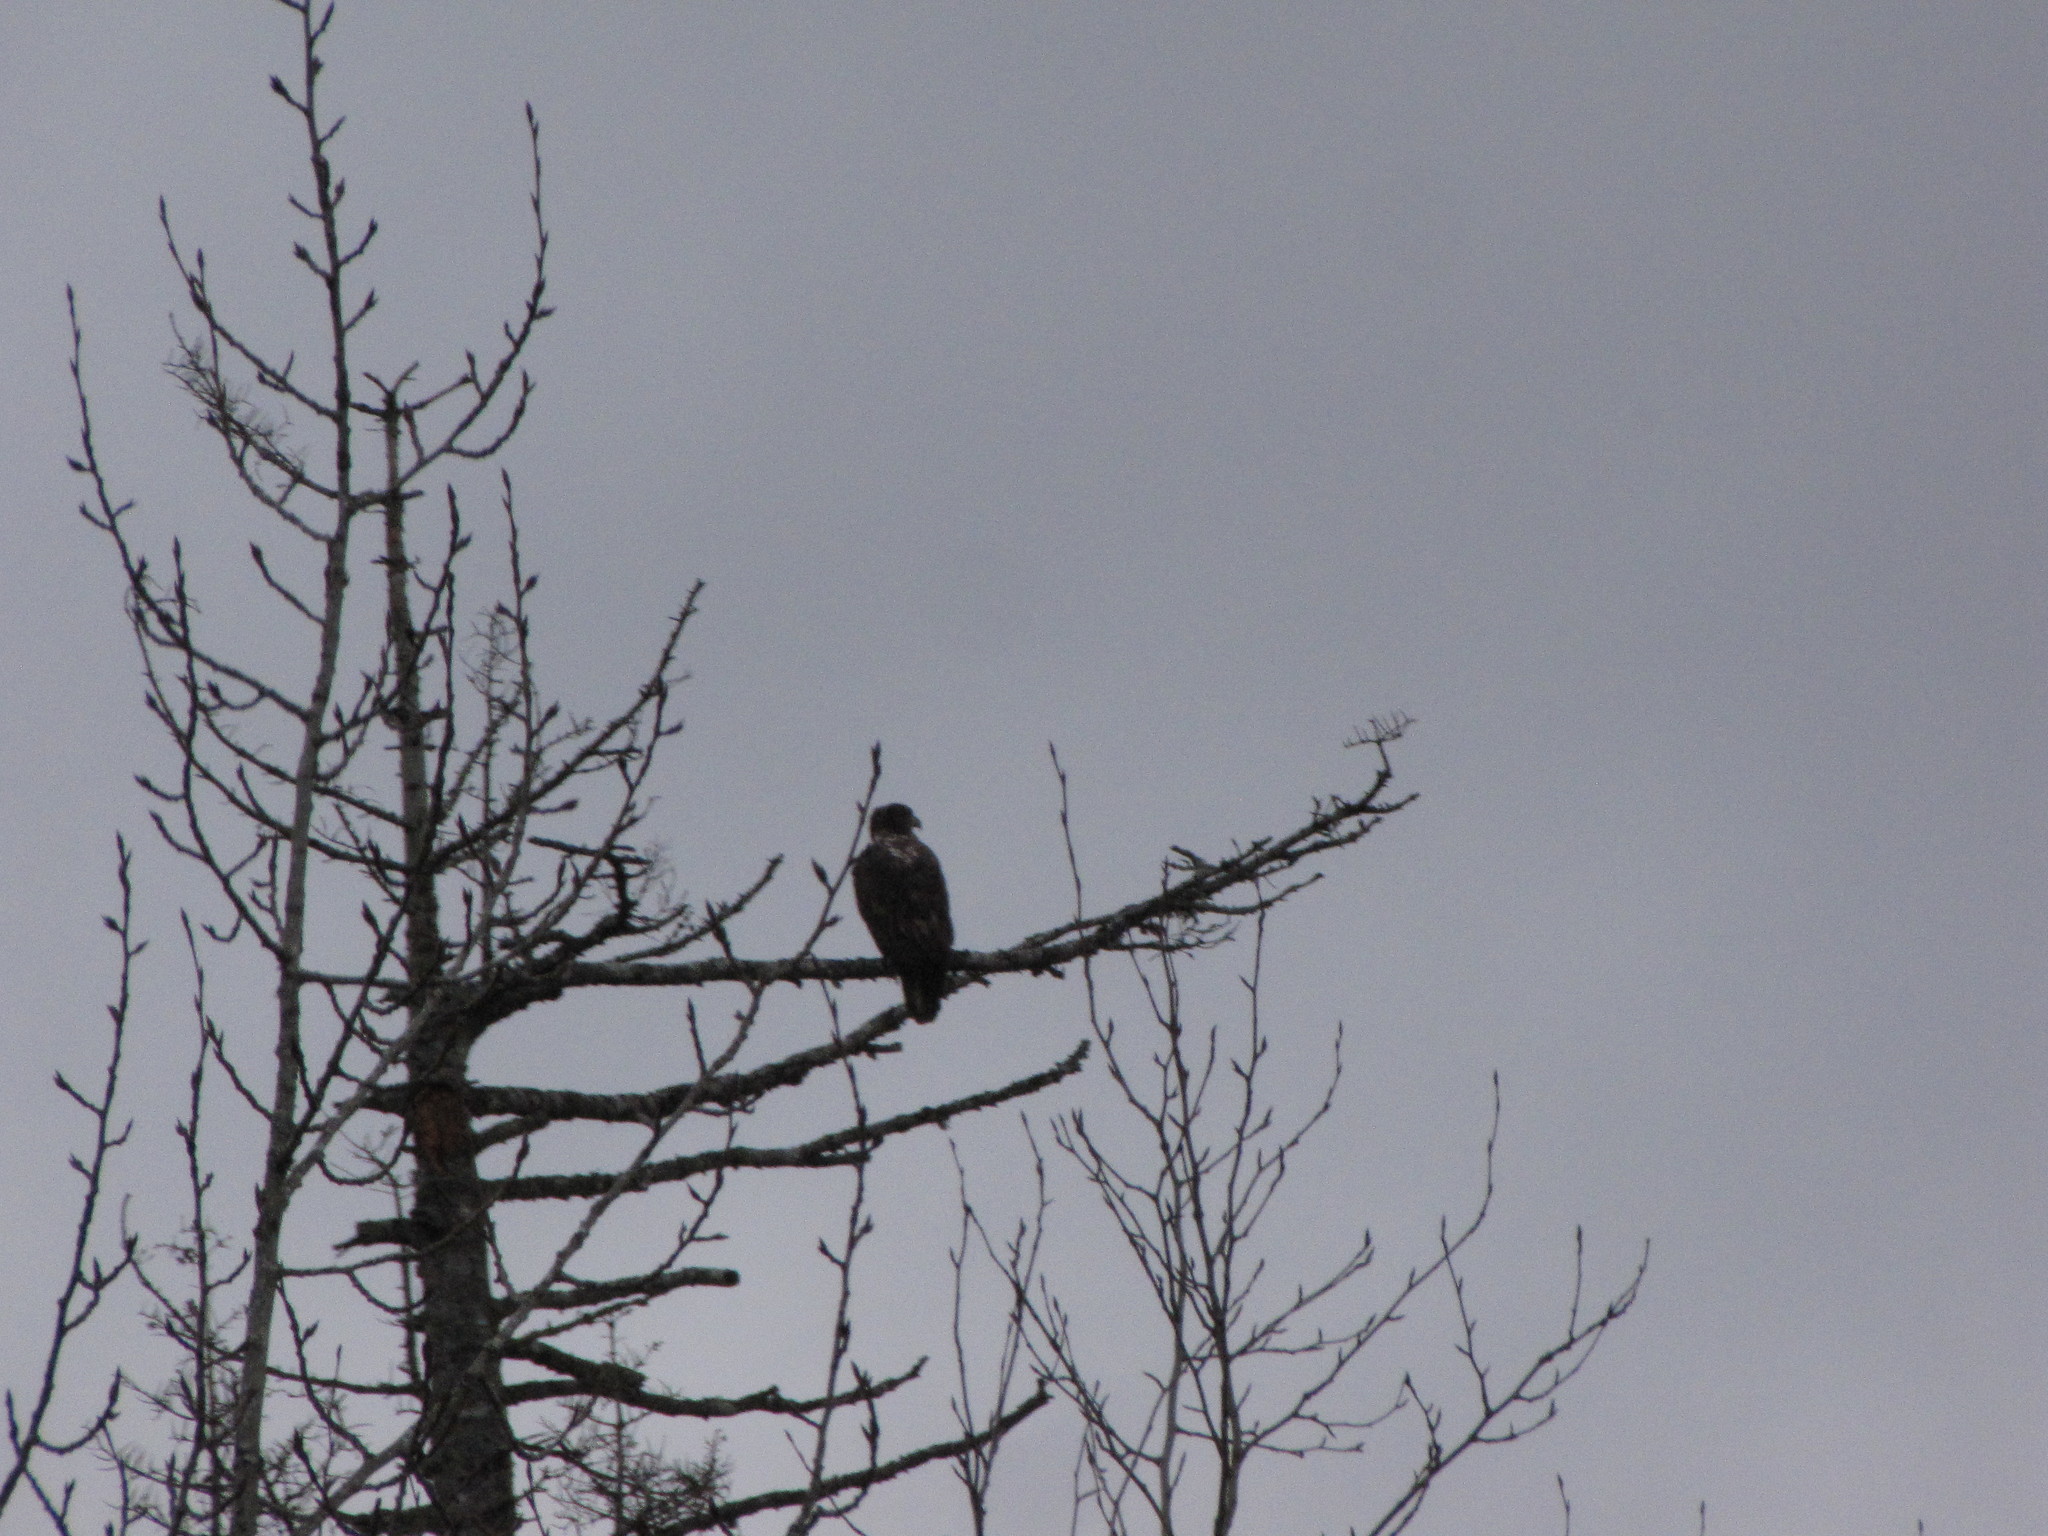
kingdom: Animalia
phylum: Chordata
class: Aves
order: Accipitriformes
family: Accipitridae
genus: Haliaeetus
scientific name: Haliaeetus leucocephalus
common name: Bald eagle
